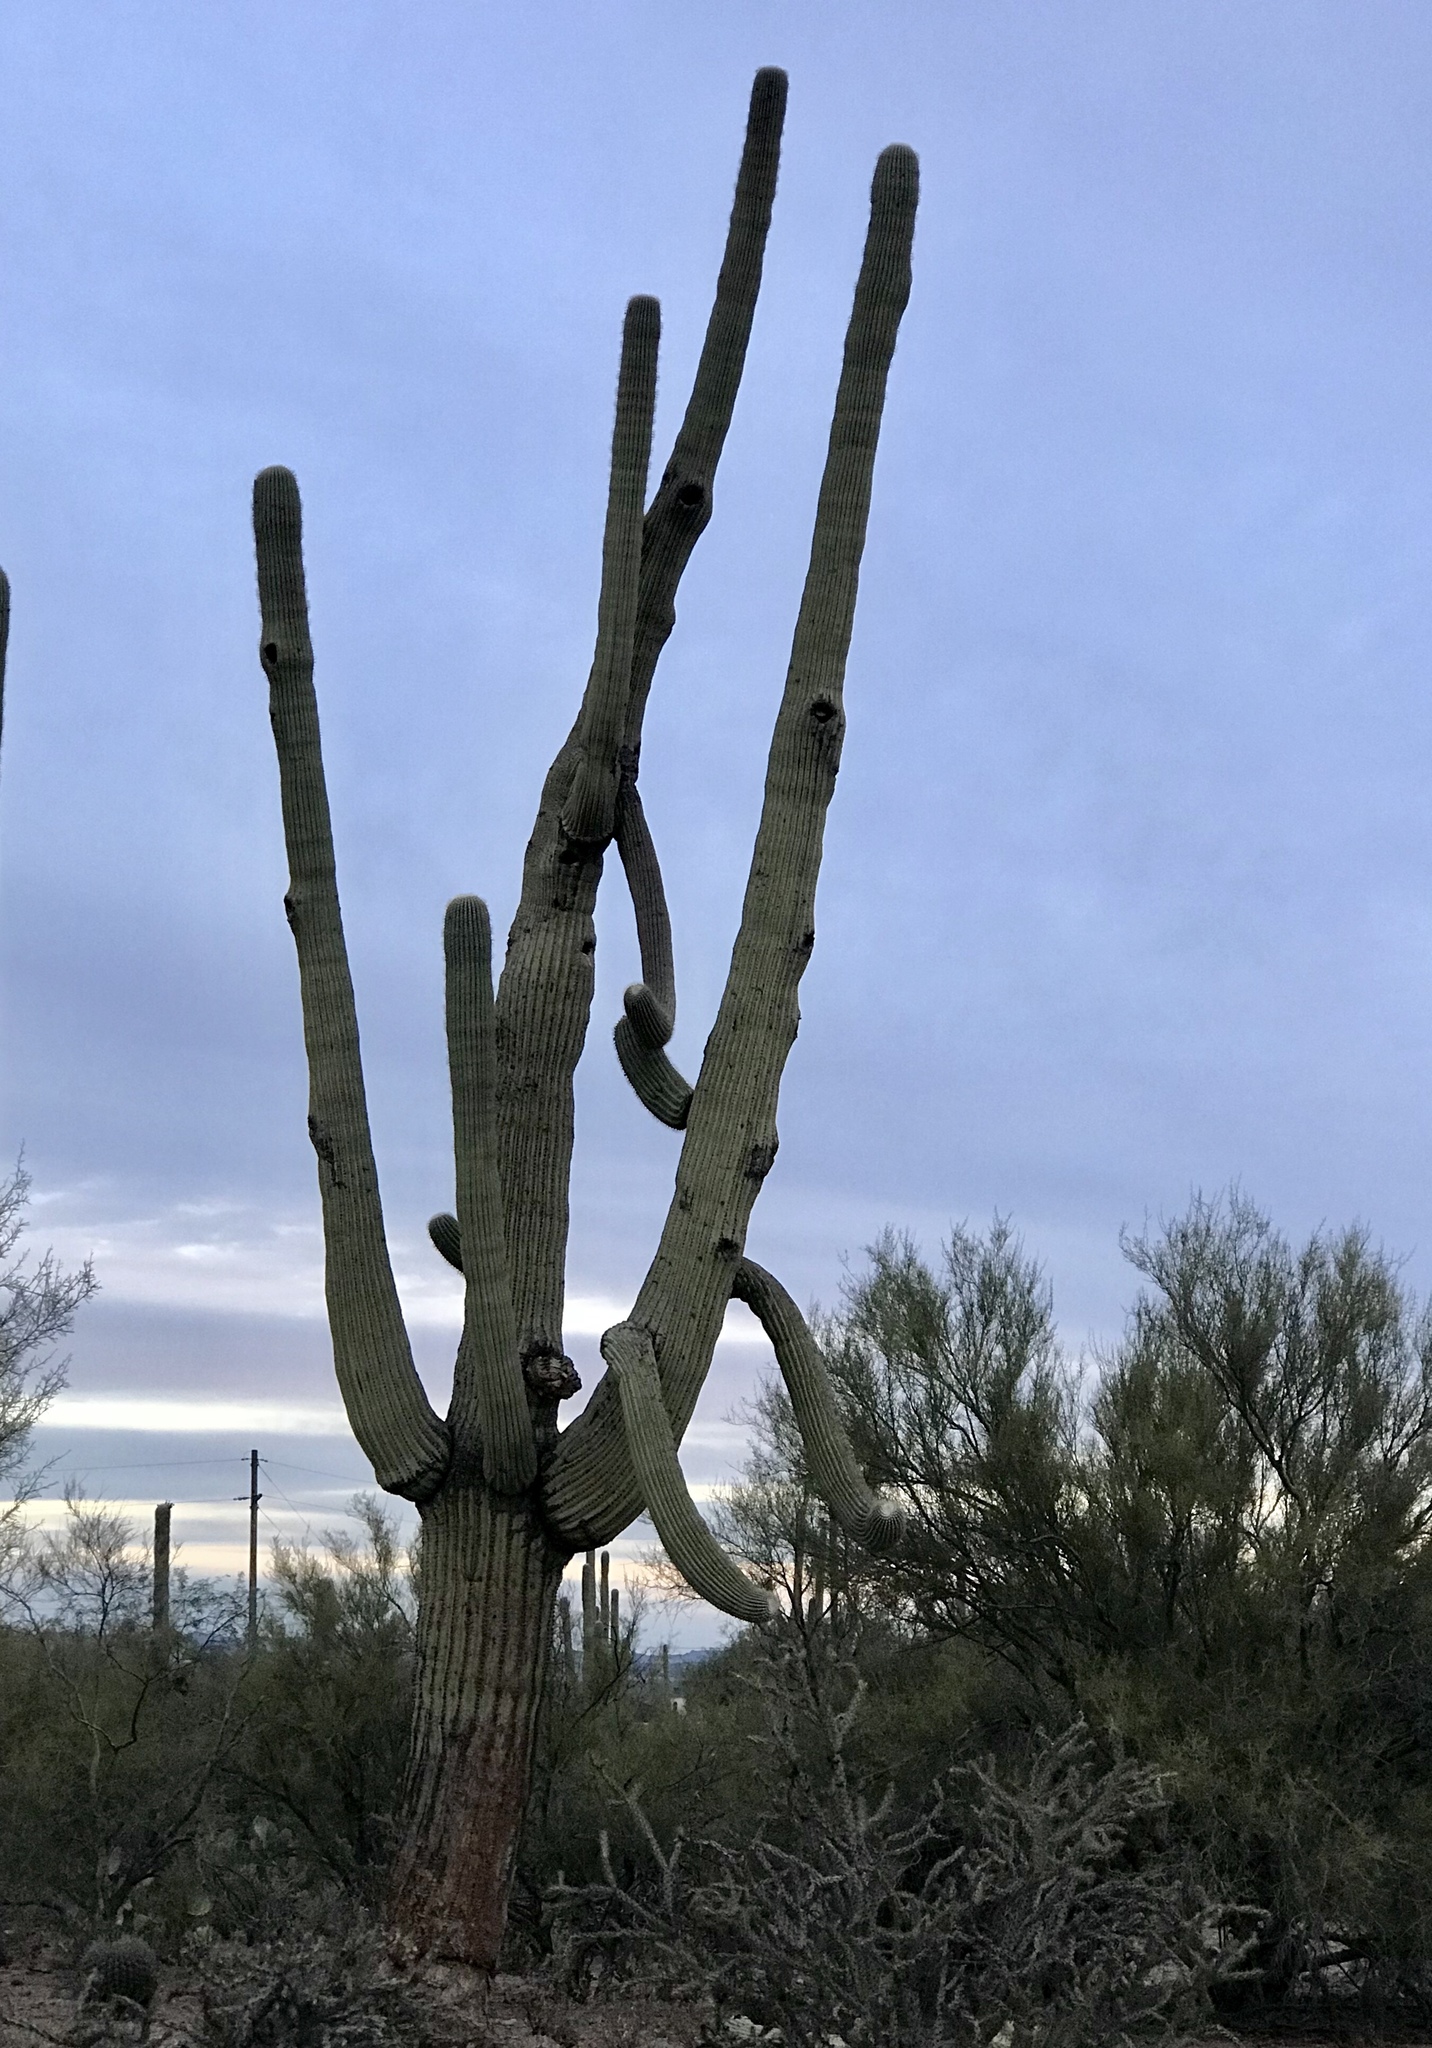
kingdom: Plantae
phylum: Tracheophyta
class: Magnoliopsida
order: Caryophyllales
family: Cactaceae
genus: Carnegiea
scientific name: Carnegiea gigantea
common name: Saguaro
